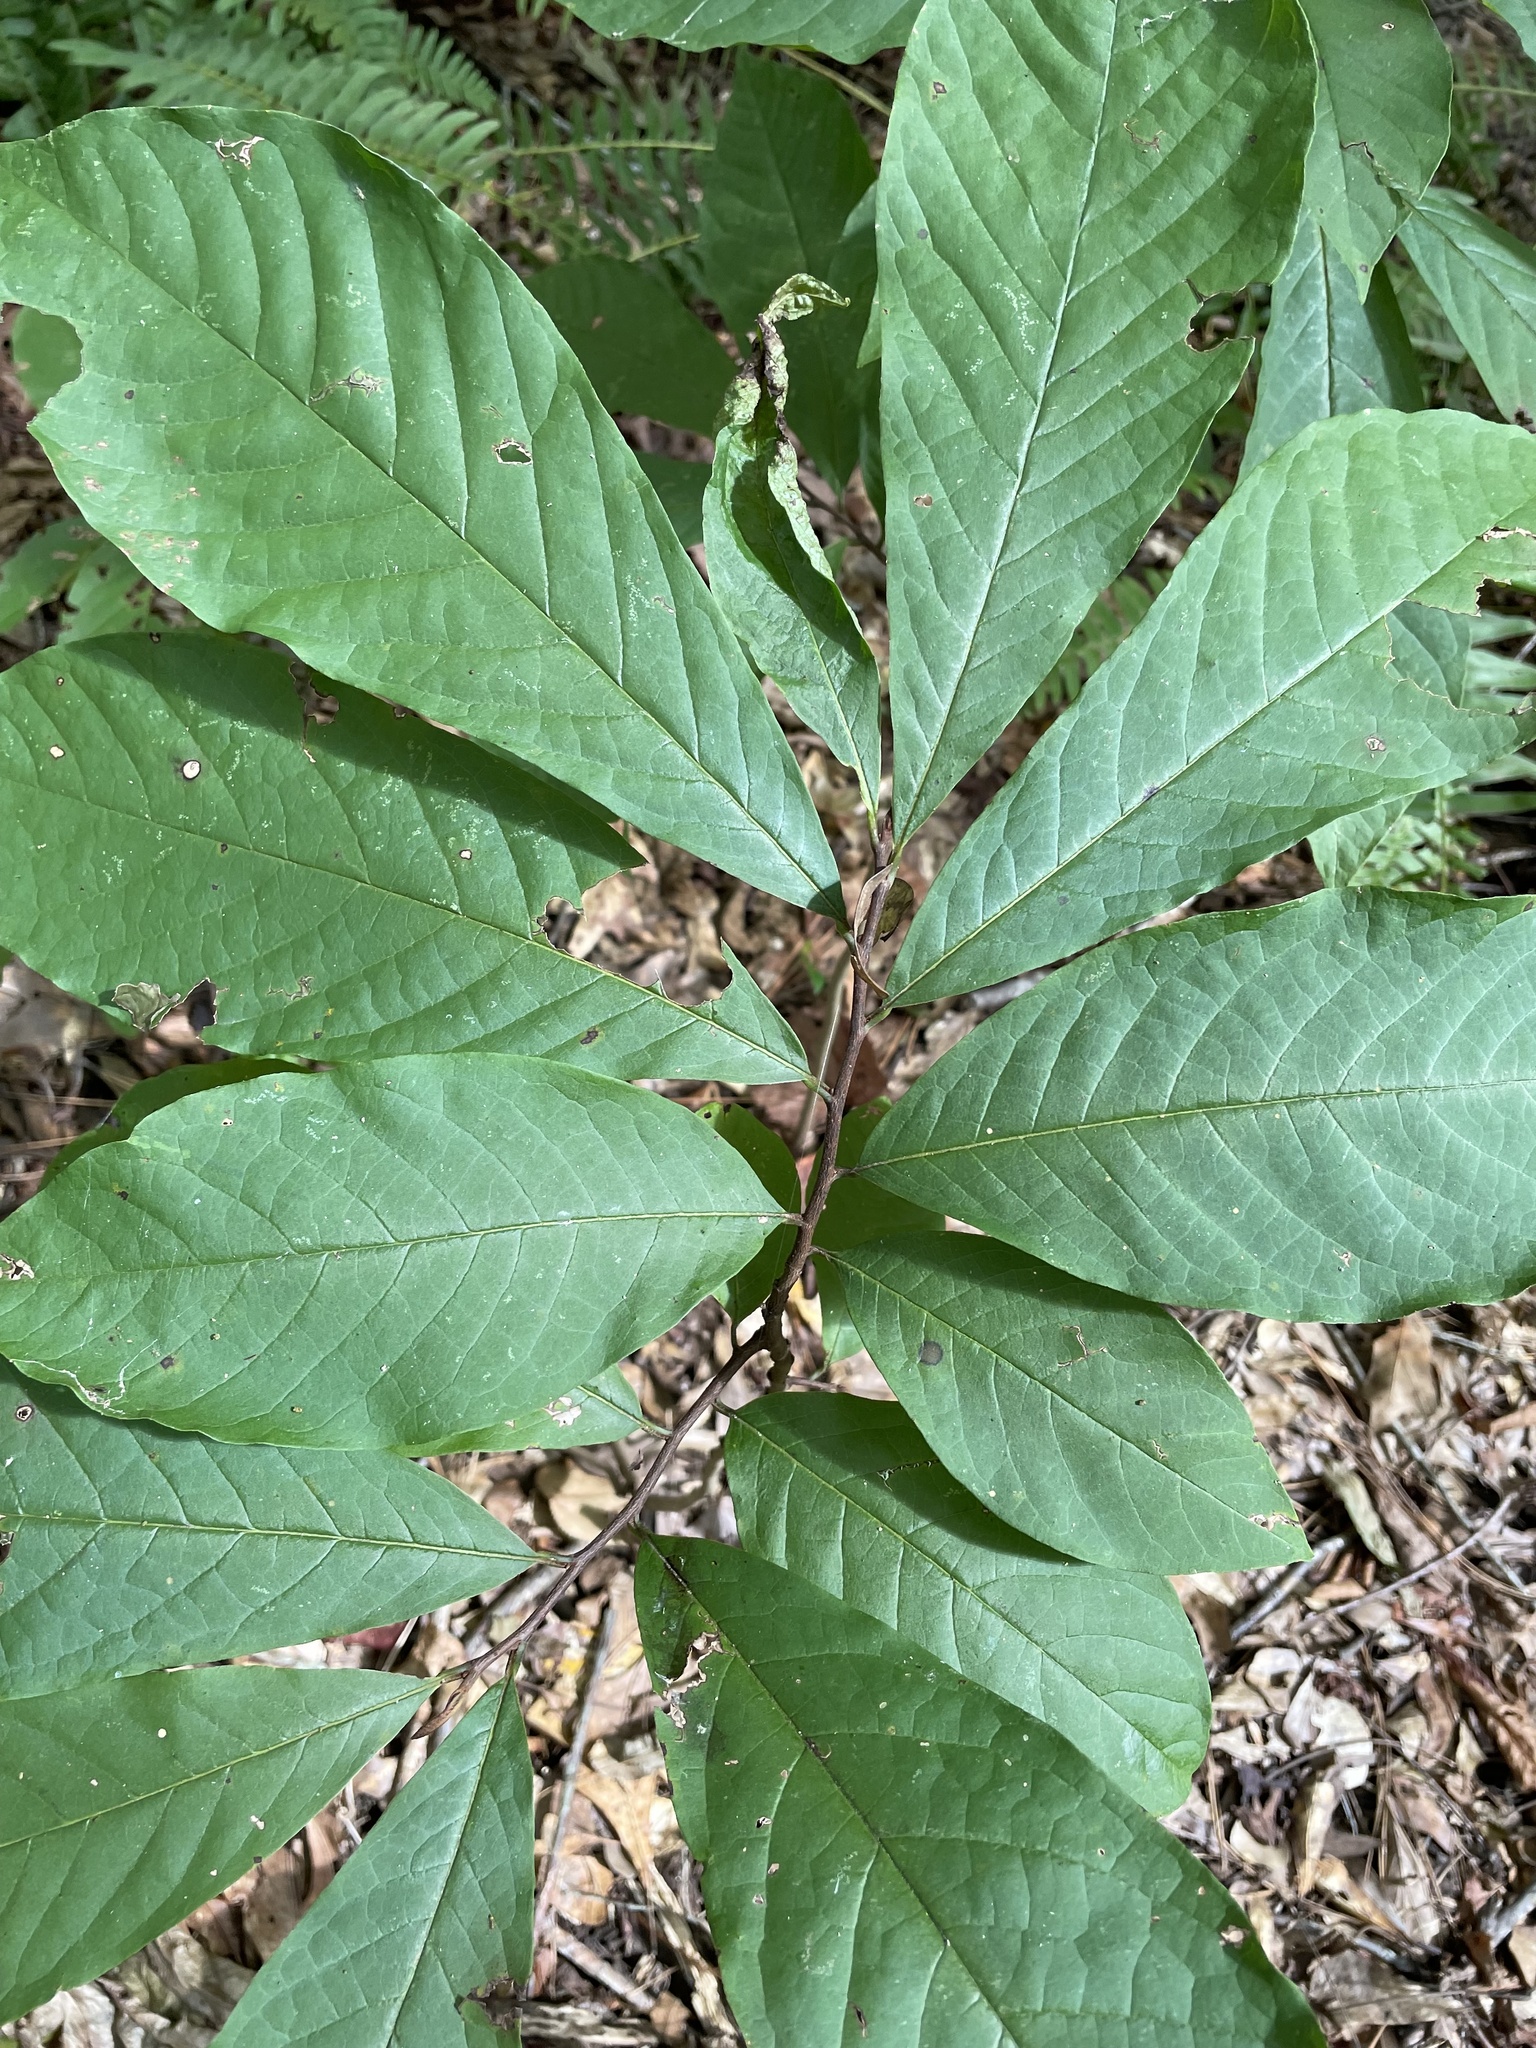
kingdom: Plantae
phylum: Tracheophyta
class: Magnoliopsida
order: Magnoliales
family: Annonaceae
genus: Asimina
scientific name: Asimina triloba
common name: Dog-banana
